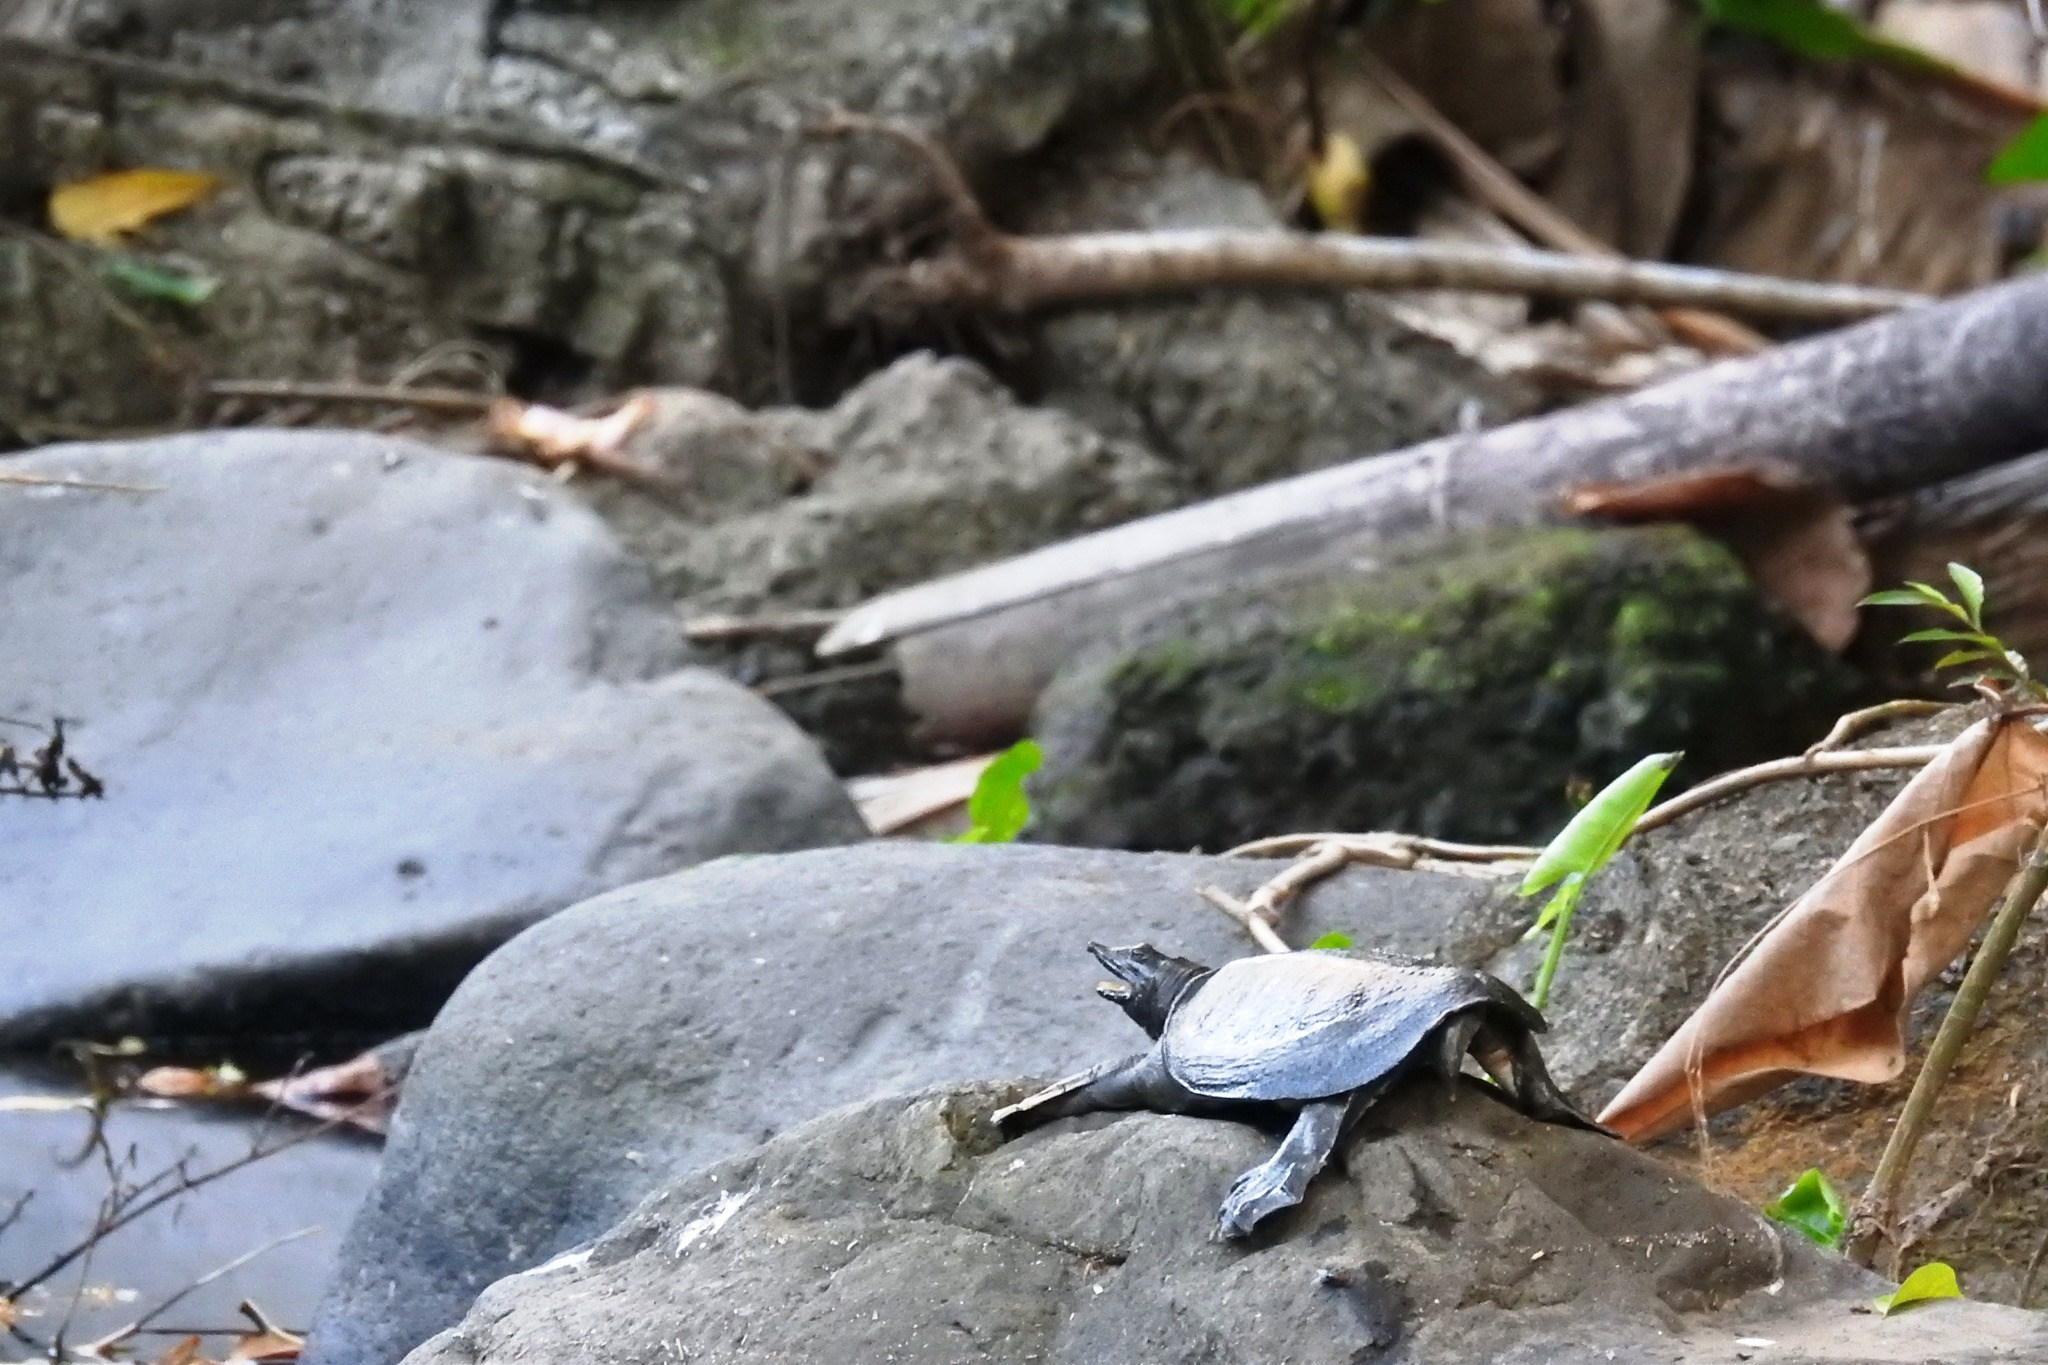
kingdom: Animalia
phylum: Chordata
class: Testudines
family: Trionychidae
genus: Pelodiscus
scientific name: Pelodiscus sinensis
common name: Chinese softshell turtle
